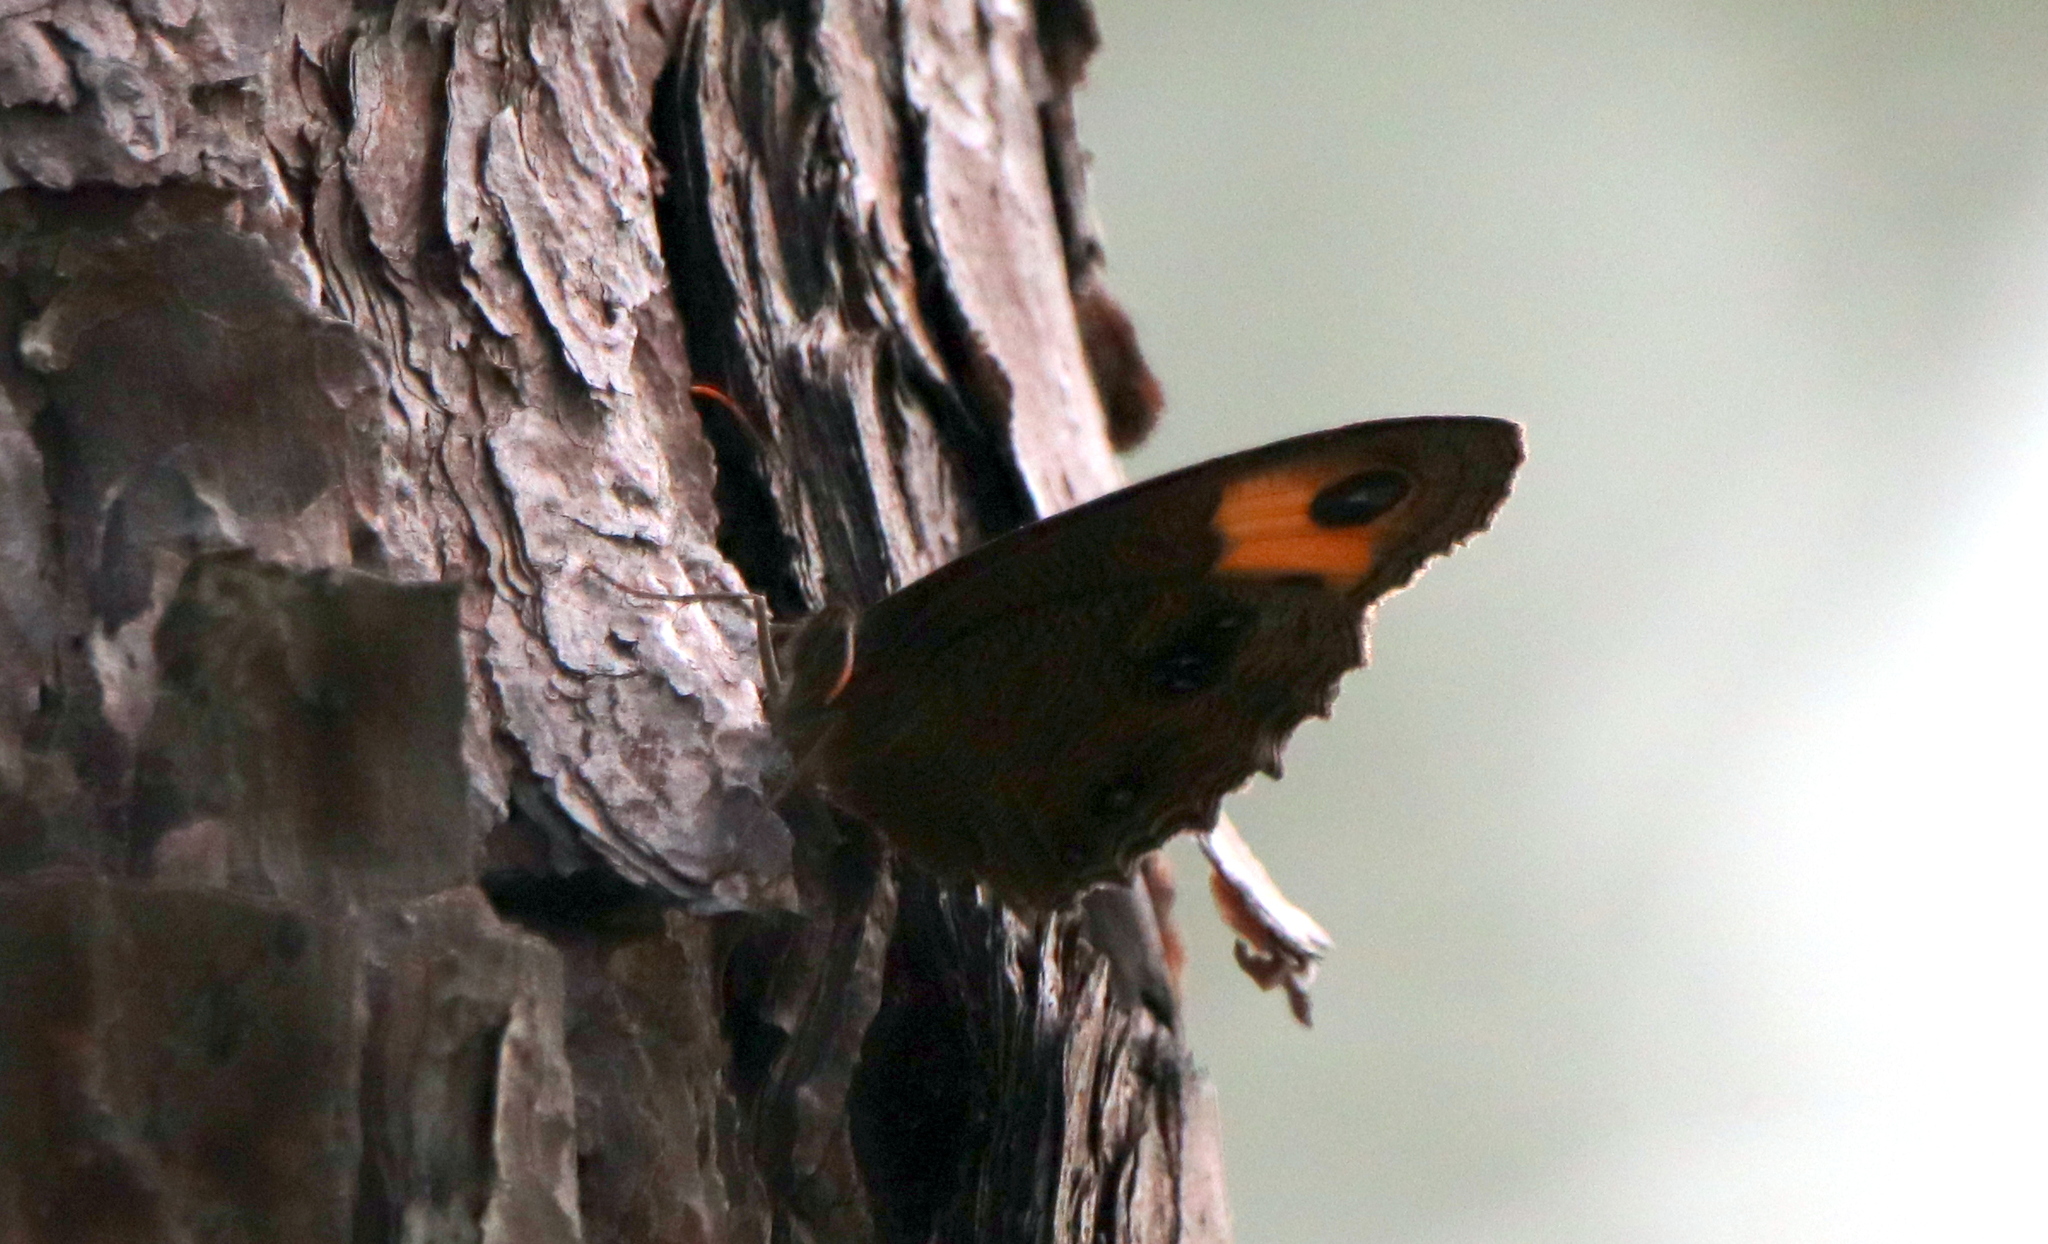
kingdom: Animalia
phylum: Arthropoda
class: Insecta
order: Lepidoptera
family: Nymphalidae
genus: Cercyonis
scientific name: Cercyonis pegala
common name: Common wood-nymph
